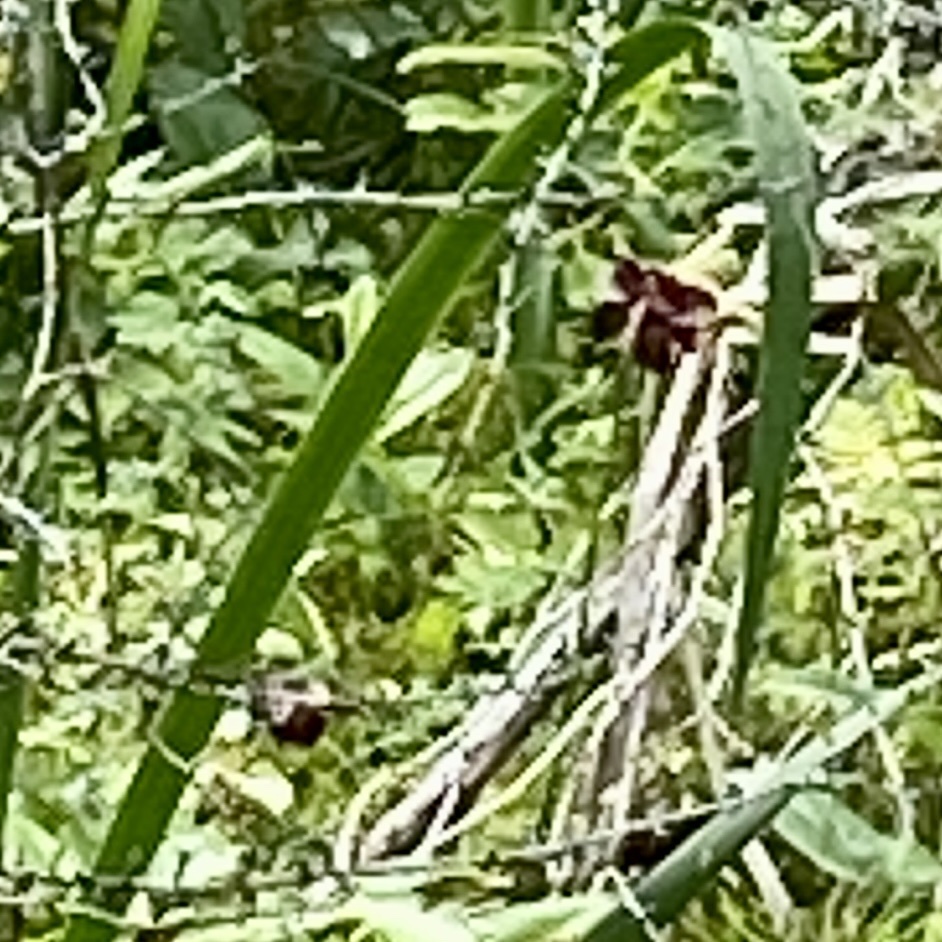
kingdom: Plantae
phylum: Tracheophyta
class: Magnoliopsida
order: Ericales
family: Sarraceniaceae
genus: Sarracenia
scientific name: Sarracenia purpurea
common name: Pitcherplant
